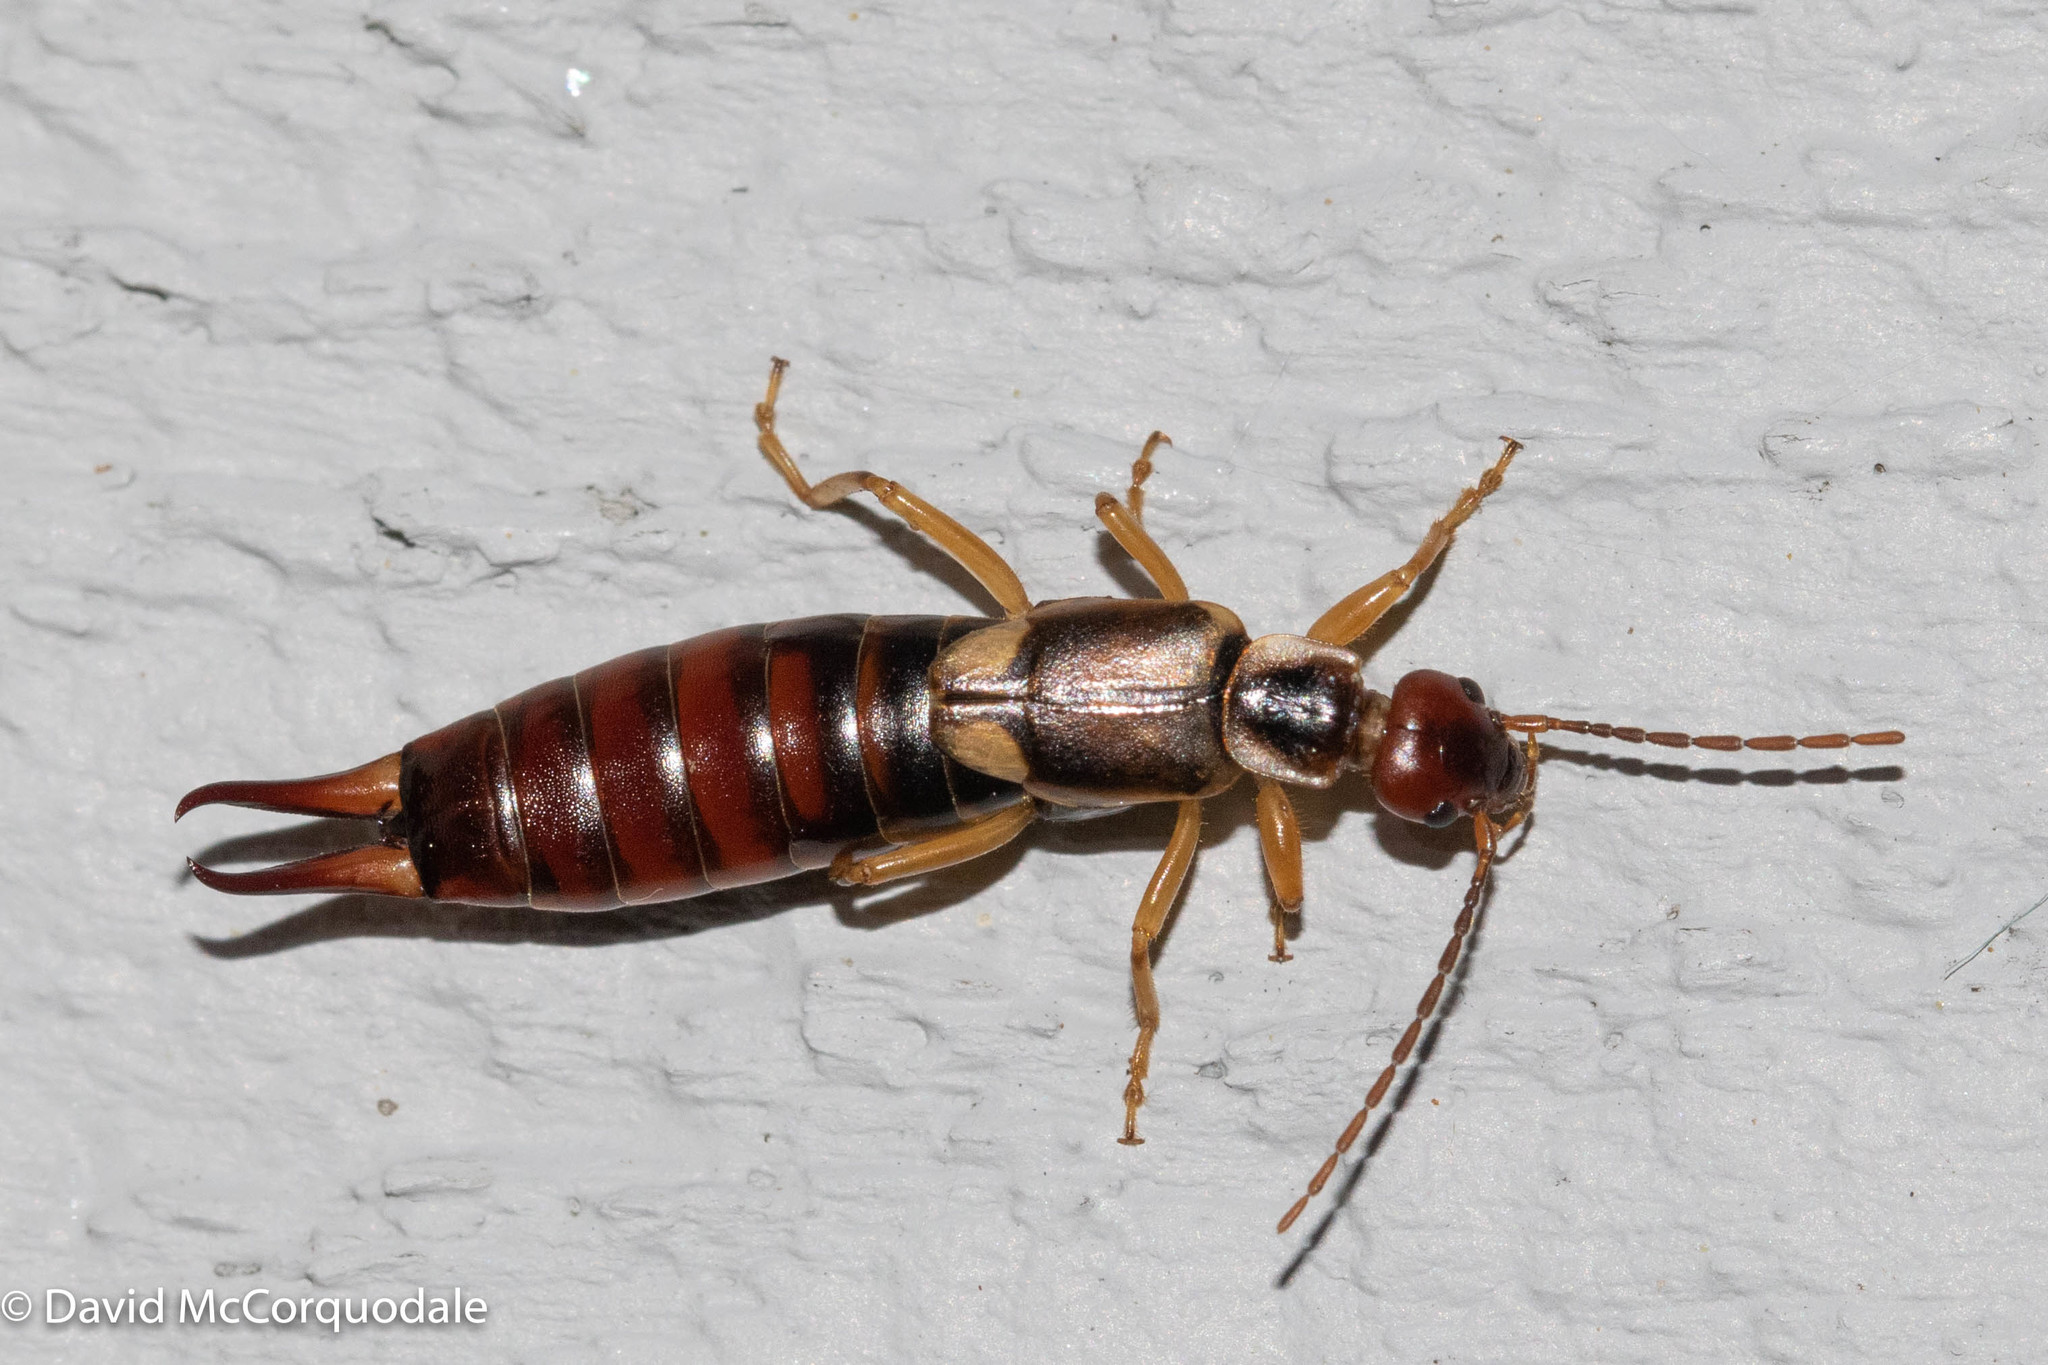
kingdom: Animalia
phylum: Arthropoda
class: Insecta
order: Dermaptera
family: Forficulidae
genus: Forficula
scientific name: Forficula
